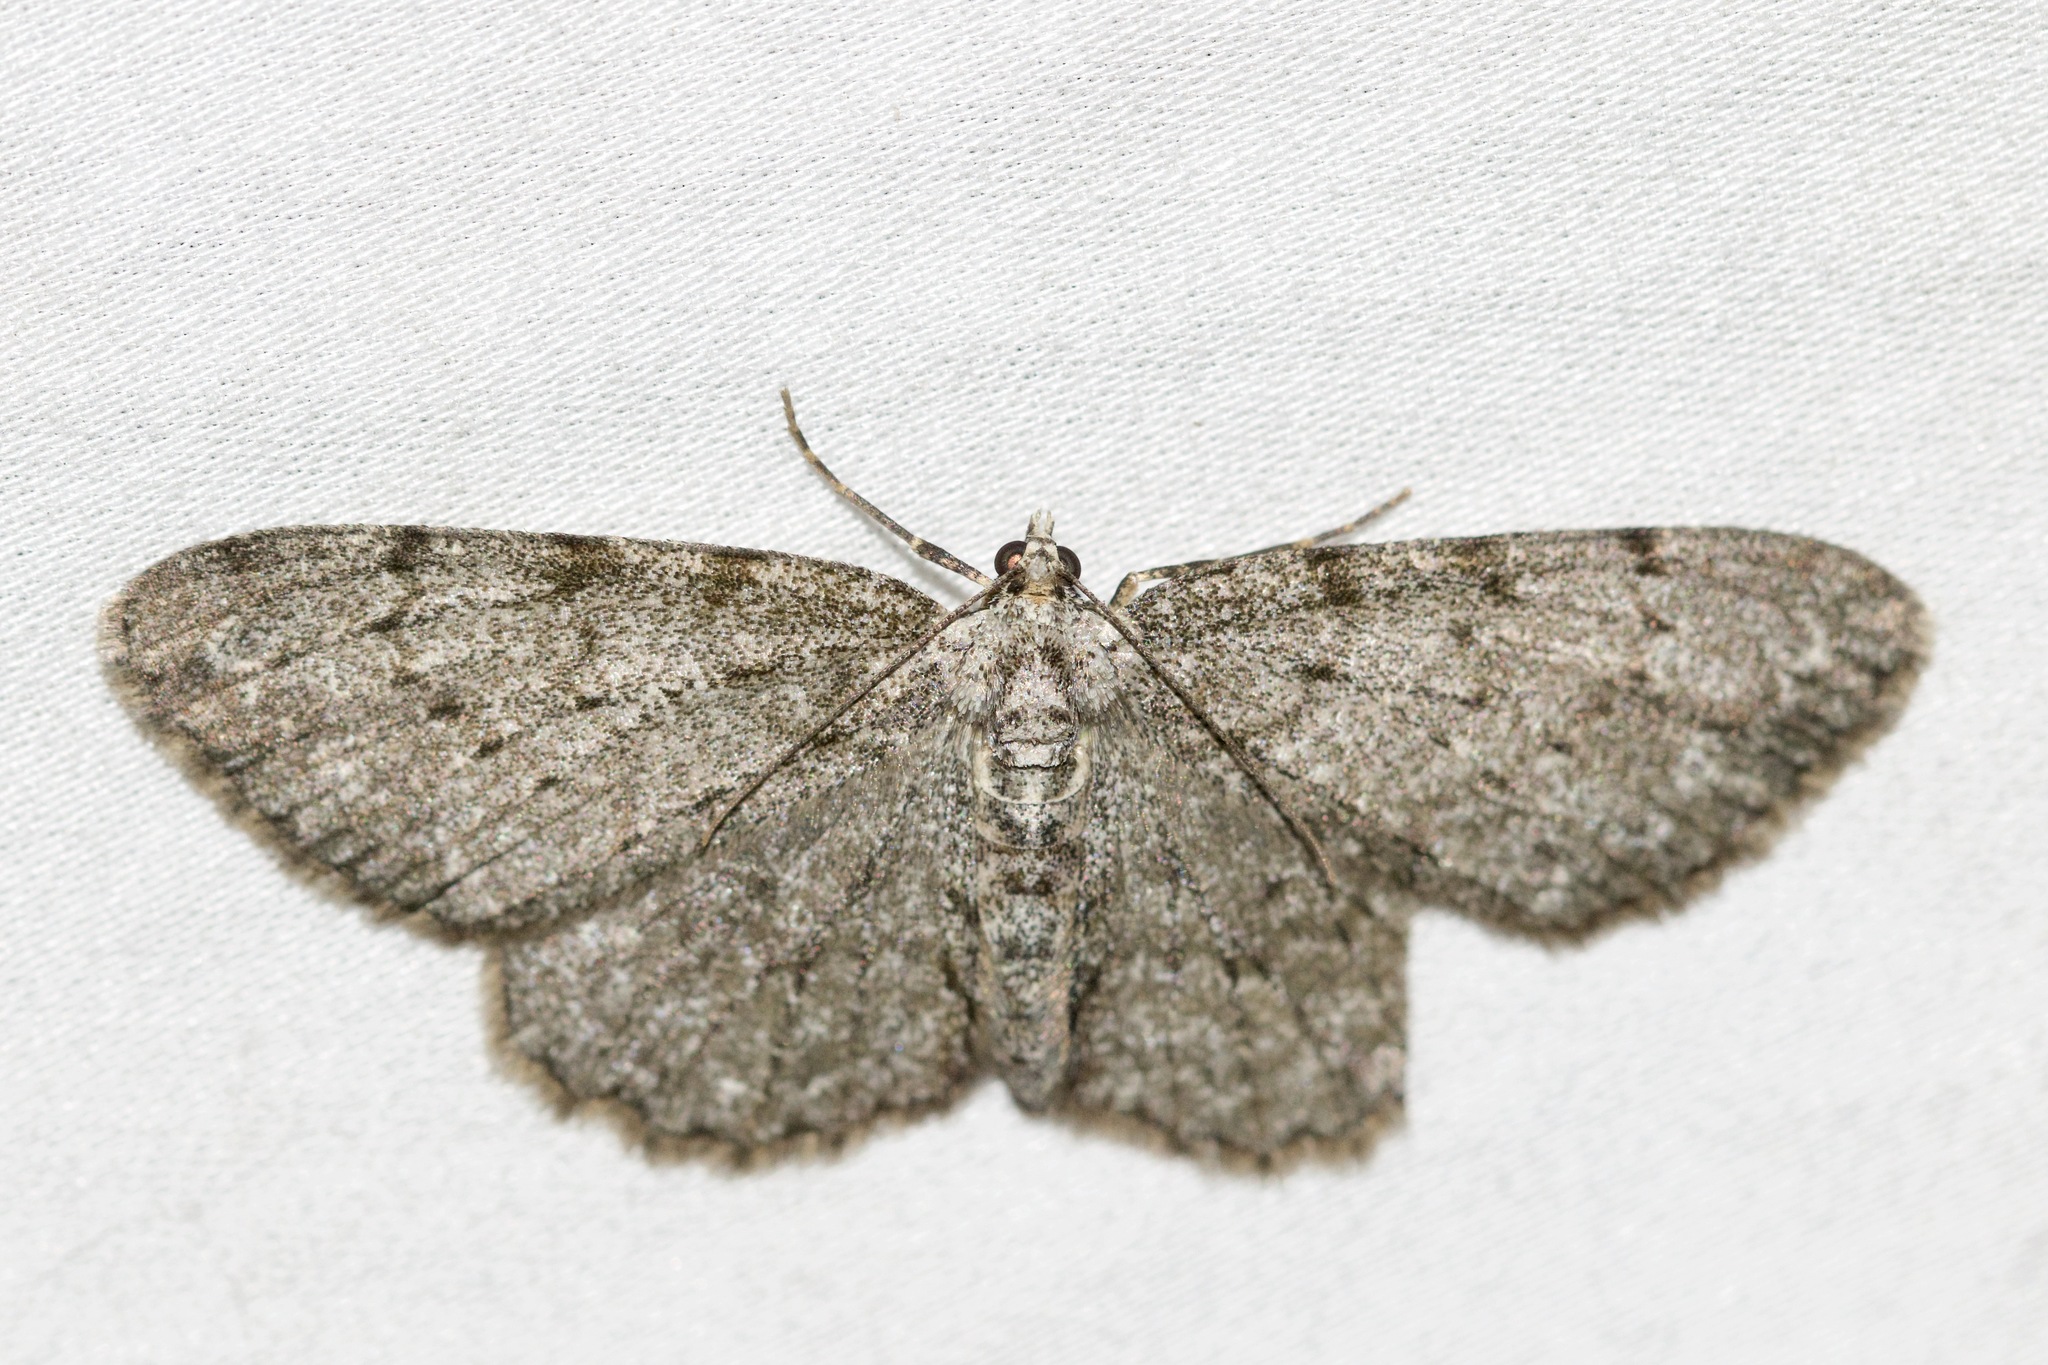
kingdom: Animalia
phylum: Arthropoda
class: Insecta
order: Lepidoptera
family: Geometridae
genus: Protoboarmia
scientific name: Protoboarmia porcelaria
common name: Porcelain gray
